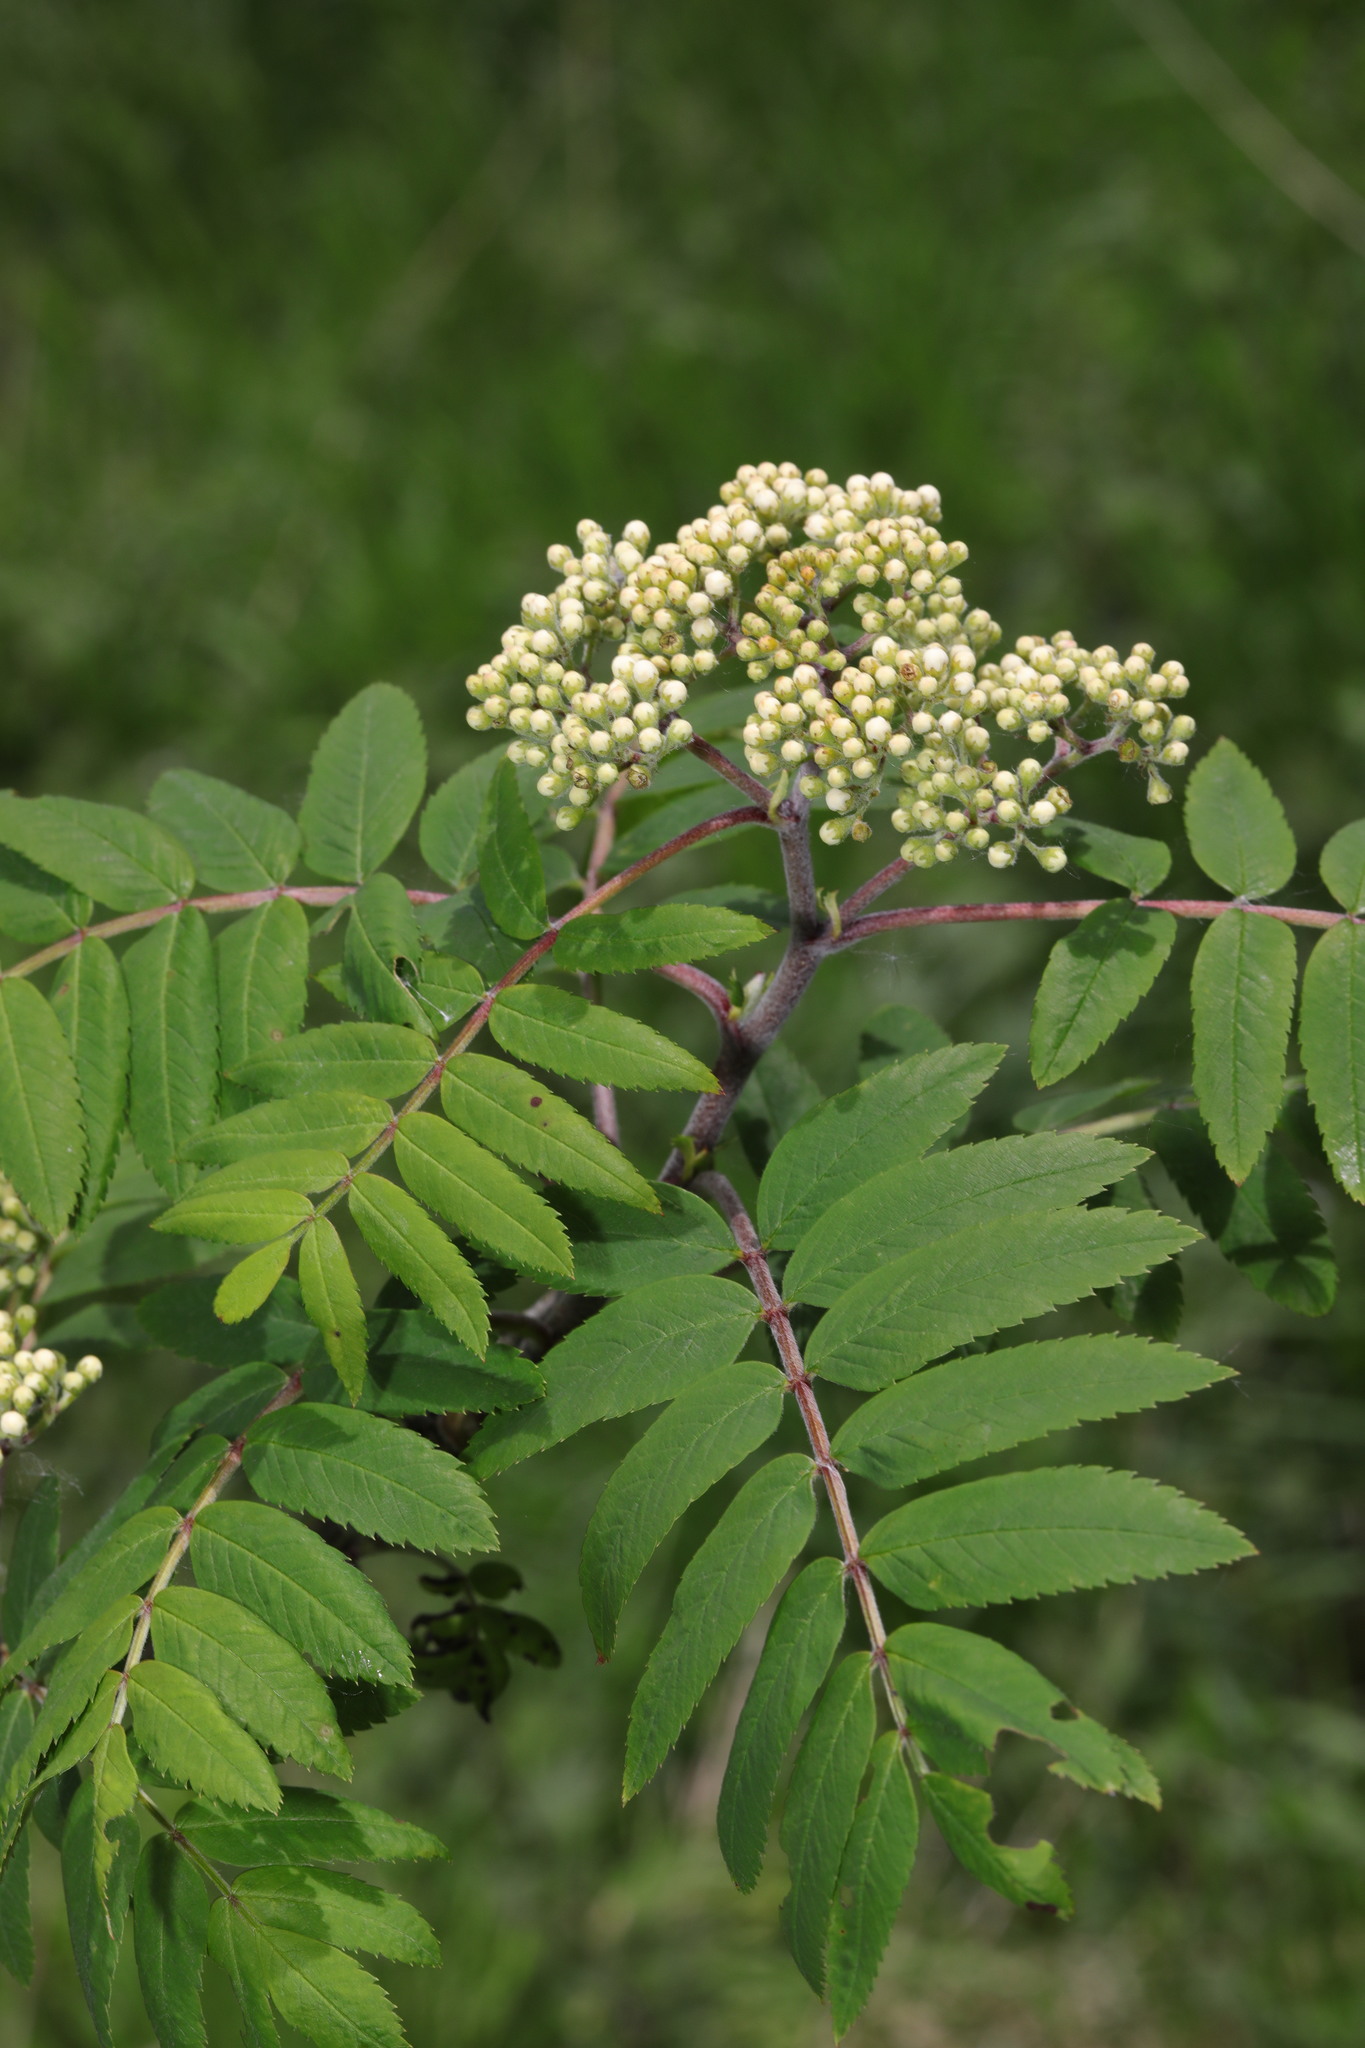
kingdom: Plantae
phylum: Tracheophyta
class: Magnoliopsida
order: Rosales
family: Rosaceae
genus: Sorbus
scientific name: Sorbus aucuparia
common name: Rowan
